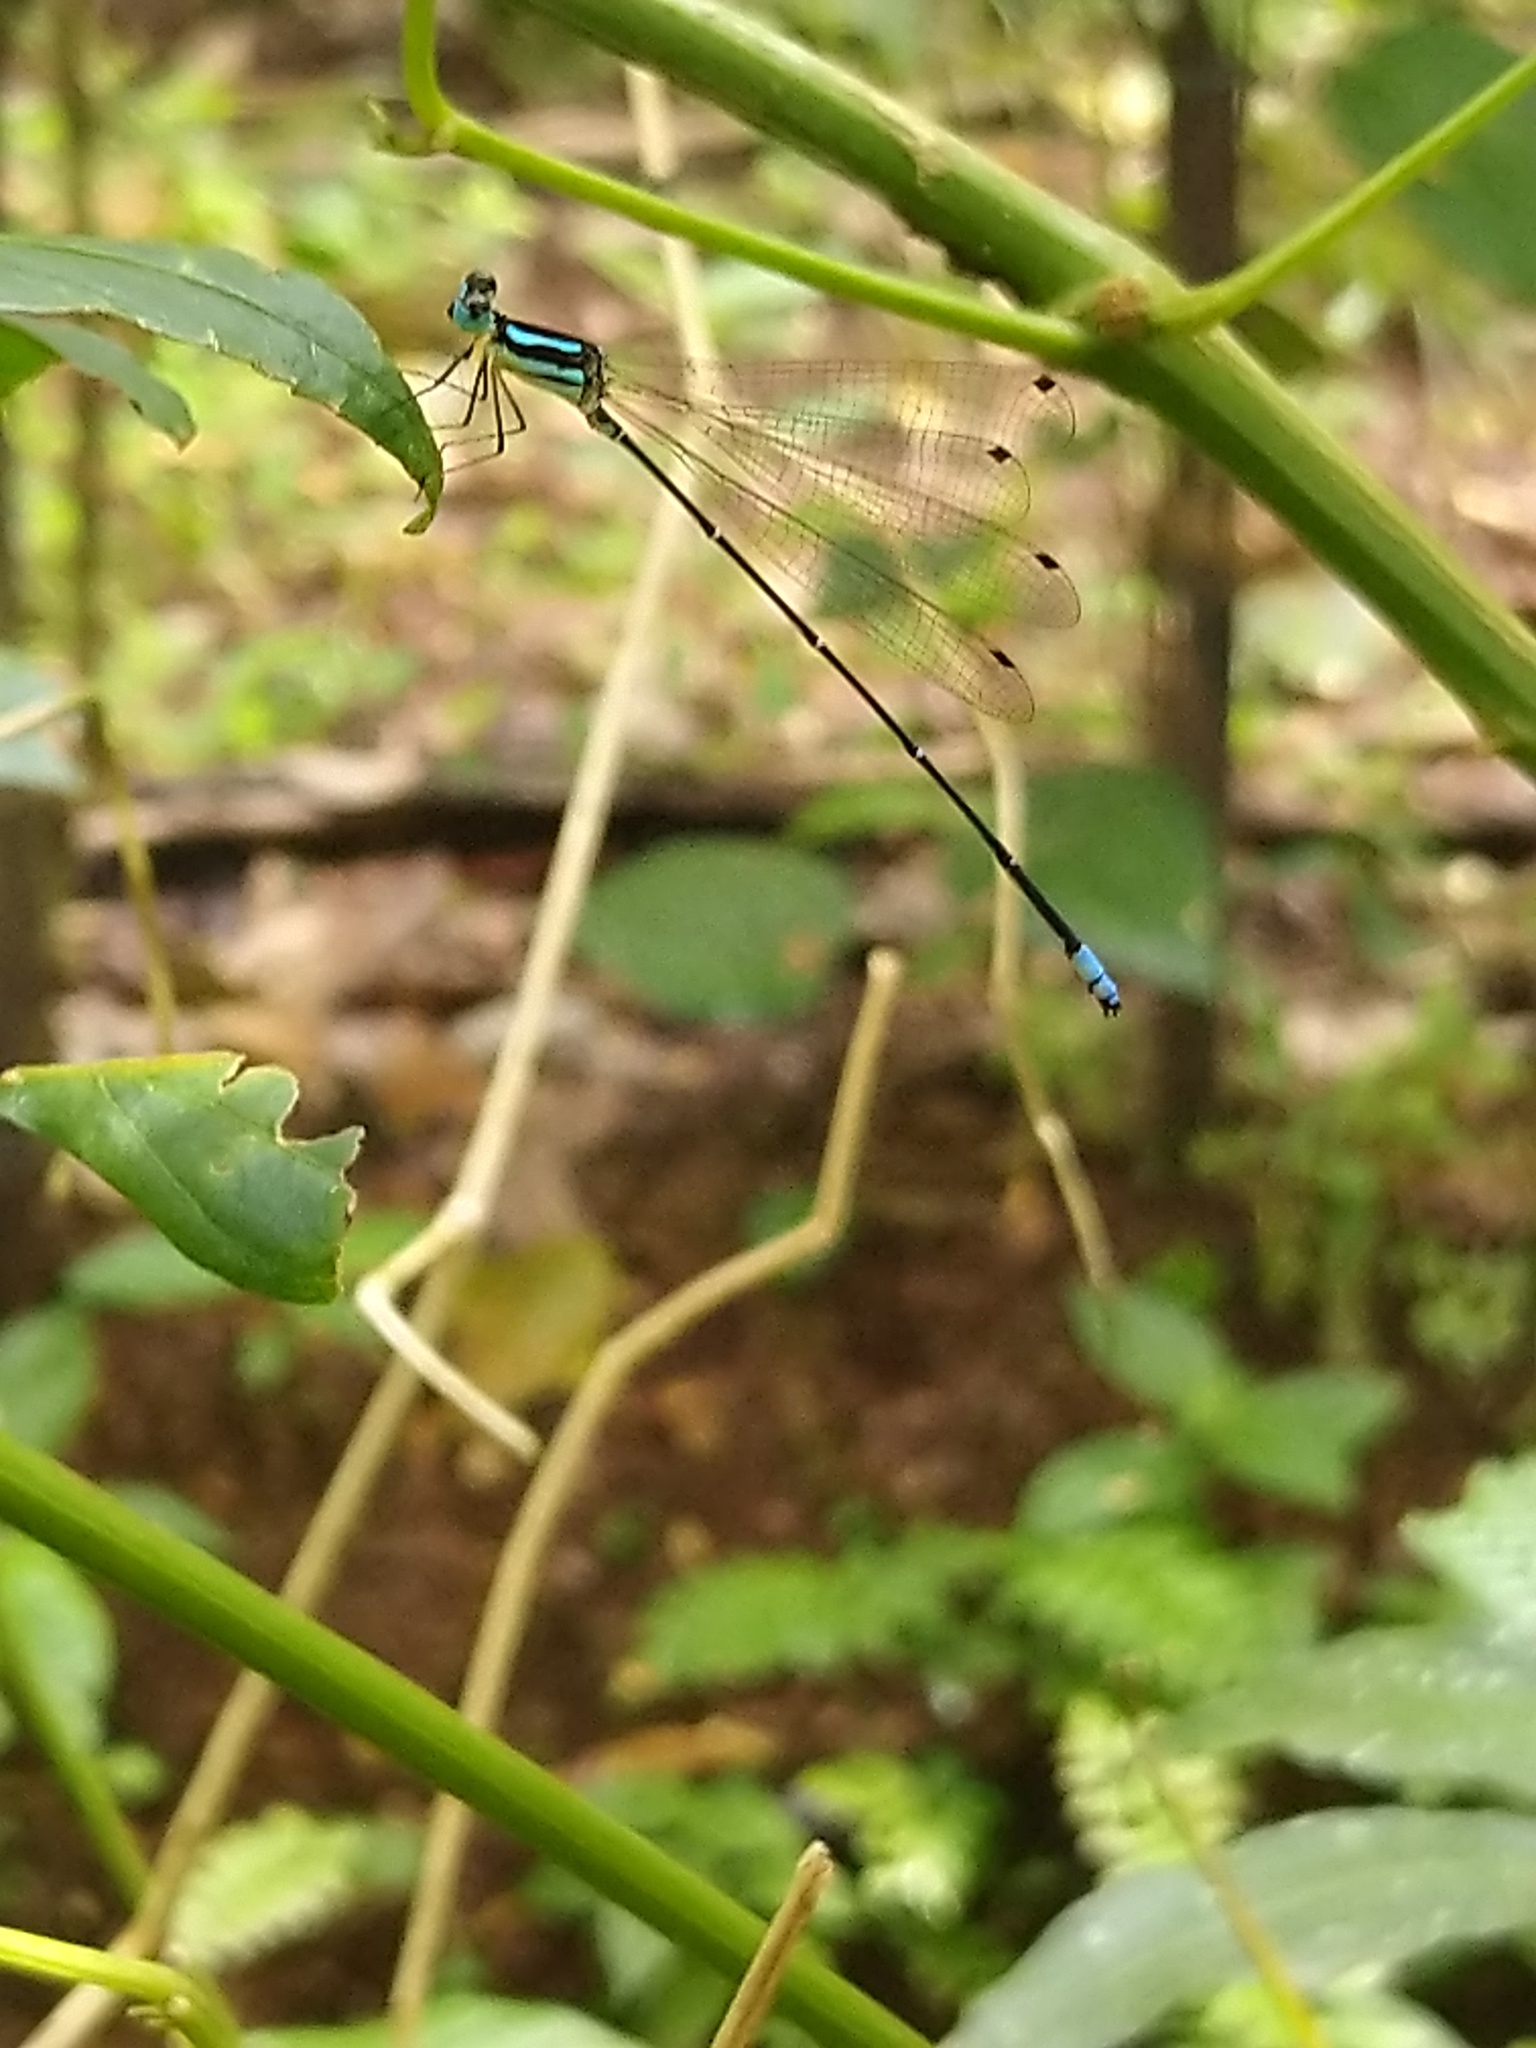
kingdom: Animalia
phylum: Arthropoda
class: Insecta
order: Odonata
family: Platycnemididae
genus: Caconeura
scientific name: Caconeura risi
